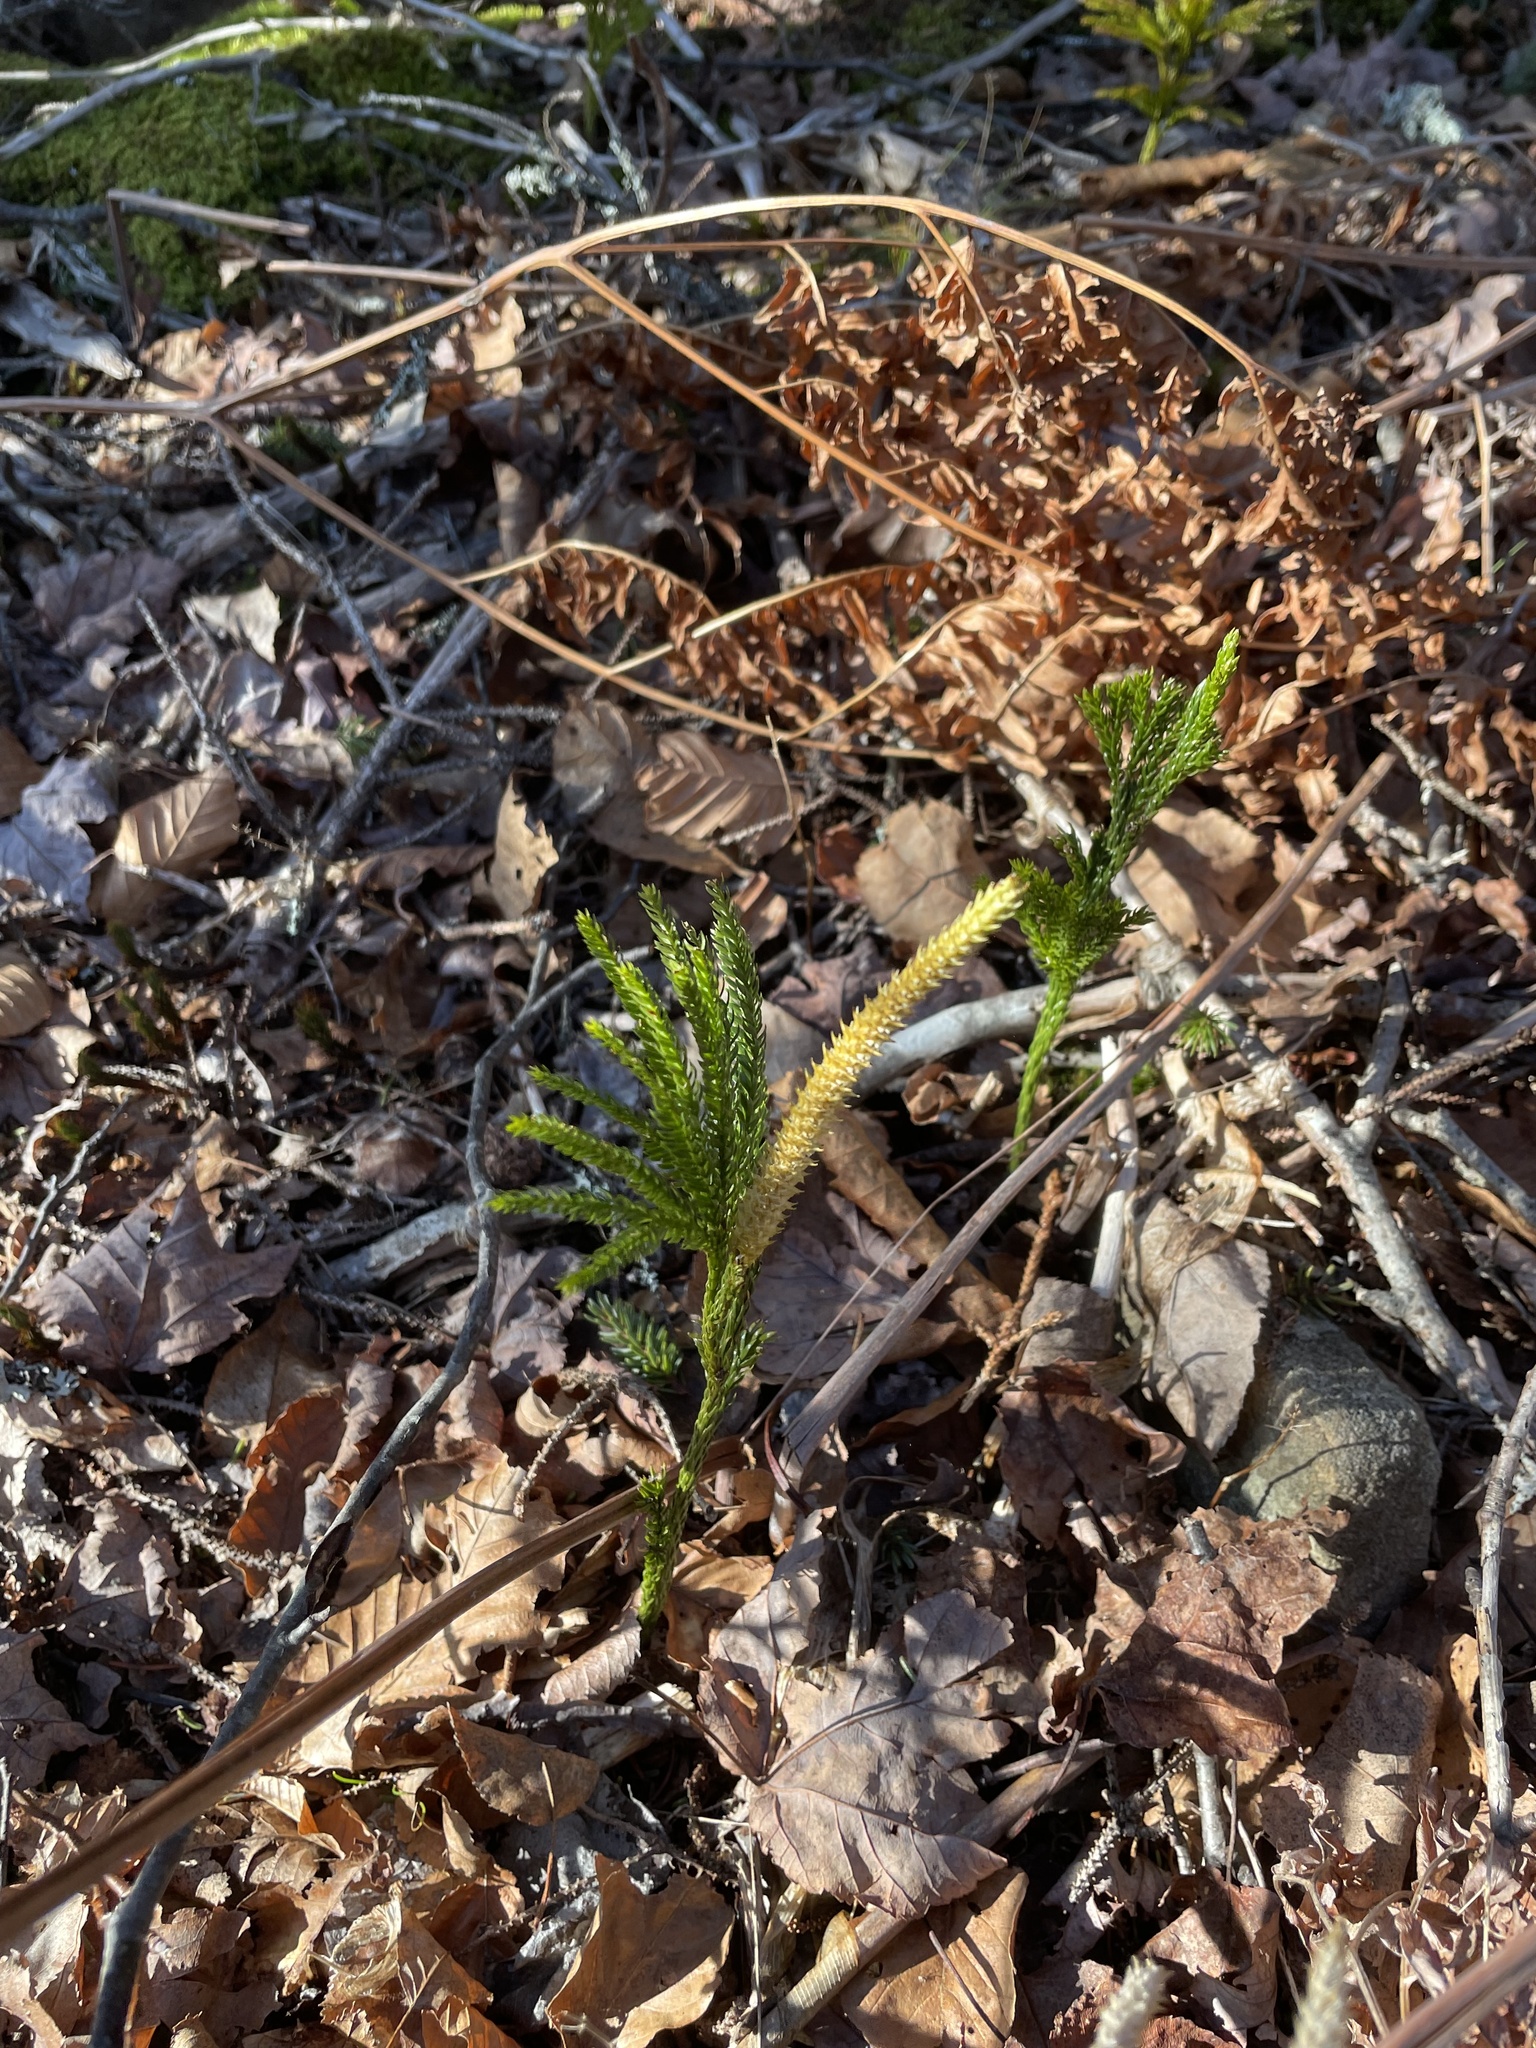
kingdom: Plantae
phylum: Tracheophyta
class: Lycopodiopsida
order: Lycopodiales
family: Lycopodiaceae
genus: Dendrolycopodium
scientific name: Dendrolycopodium hickeyi
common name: Hickey's clubmoss
